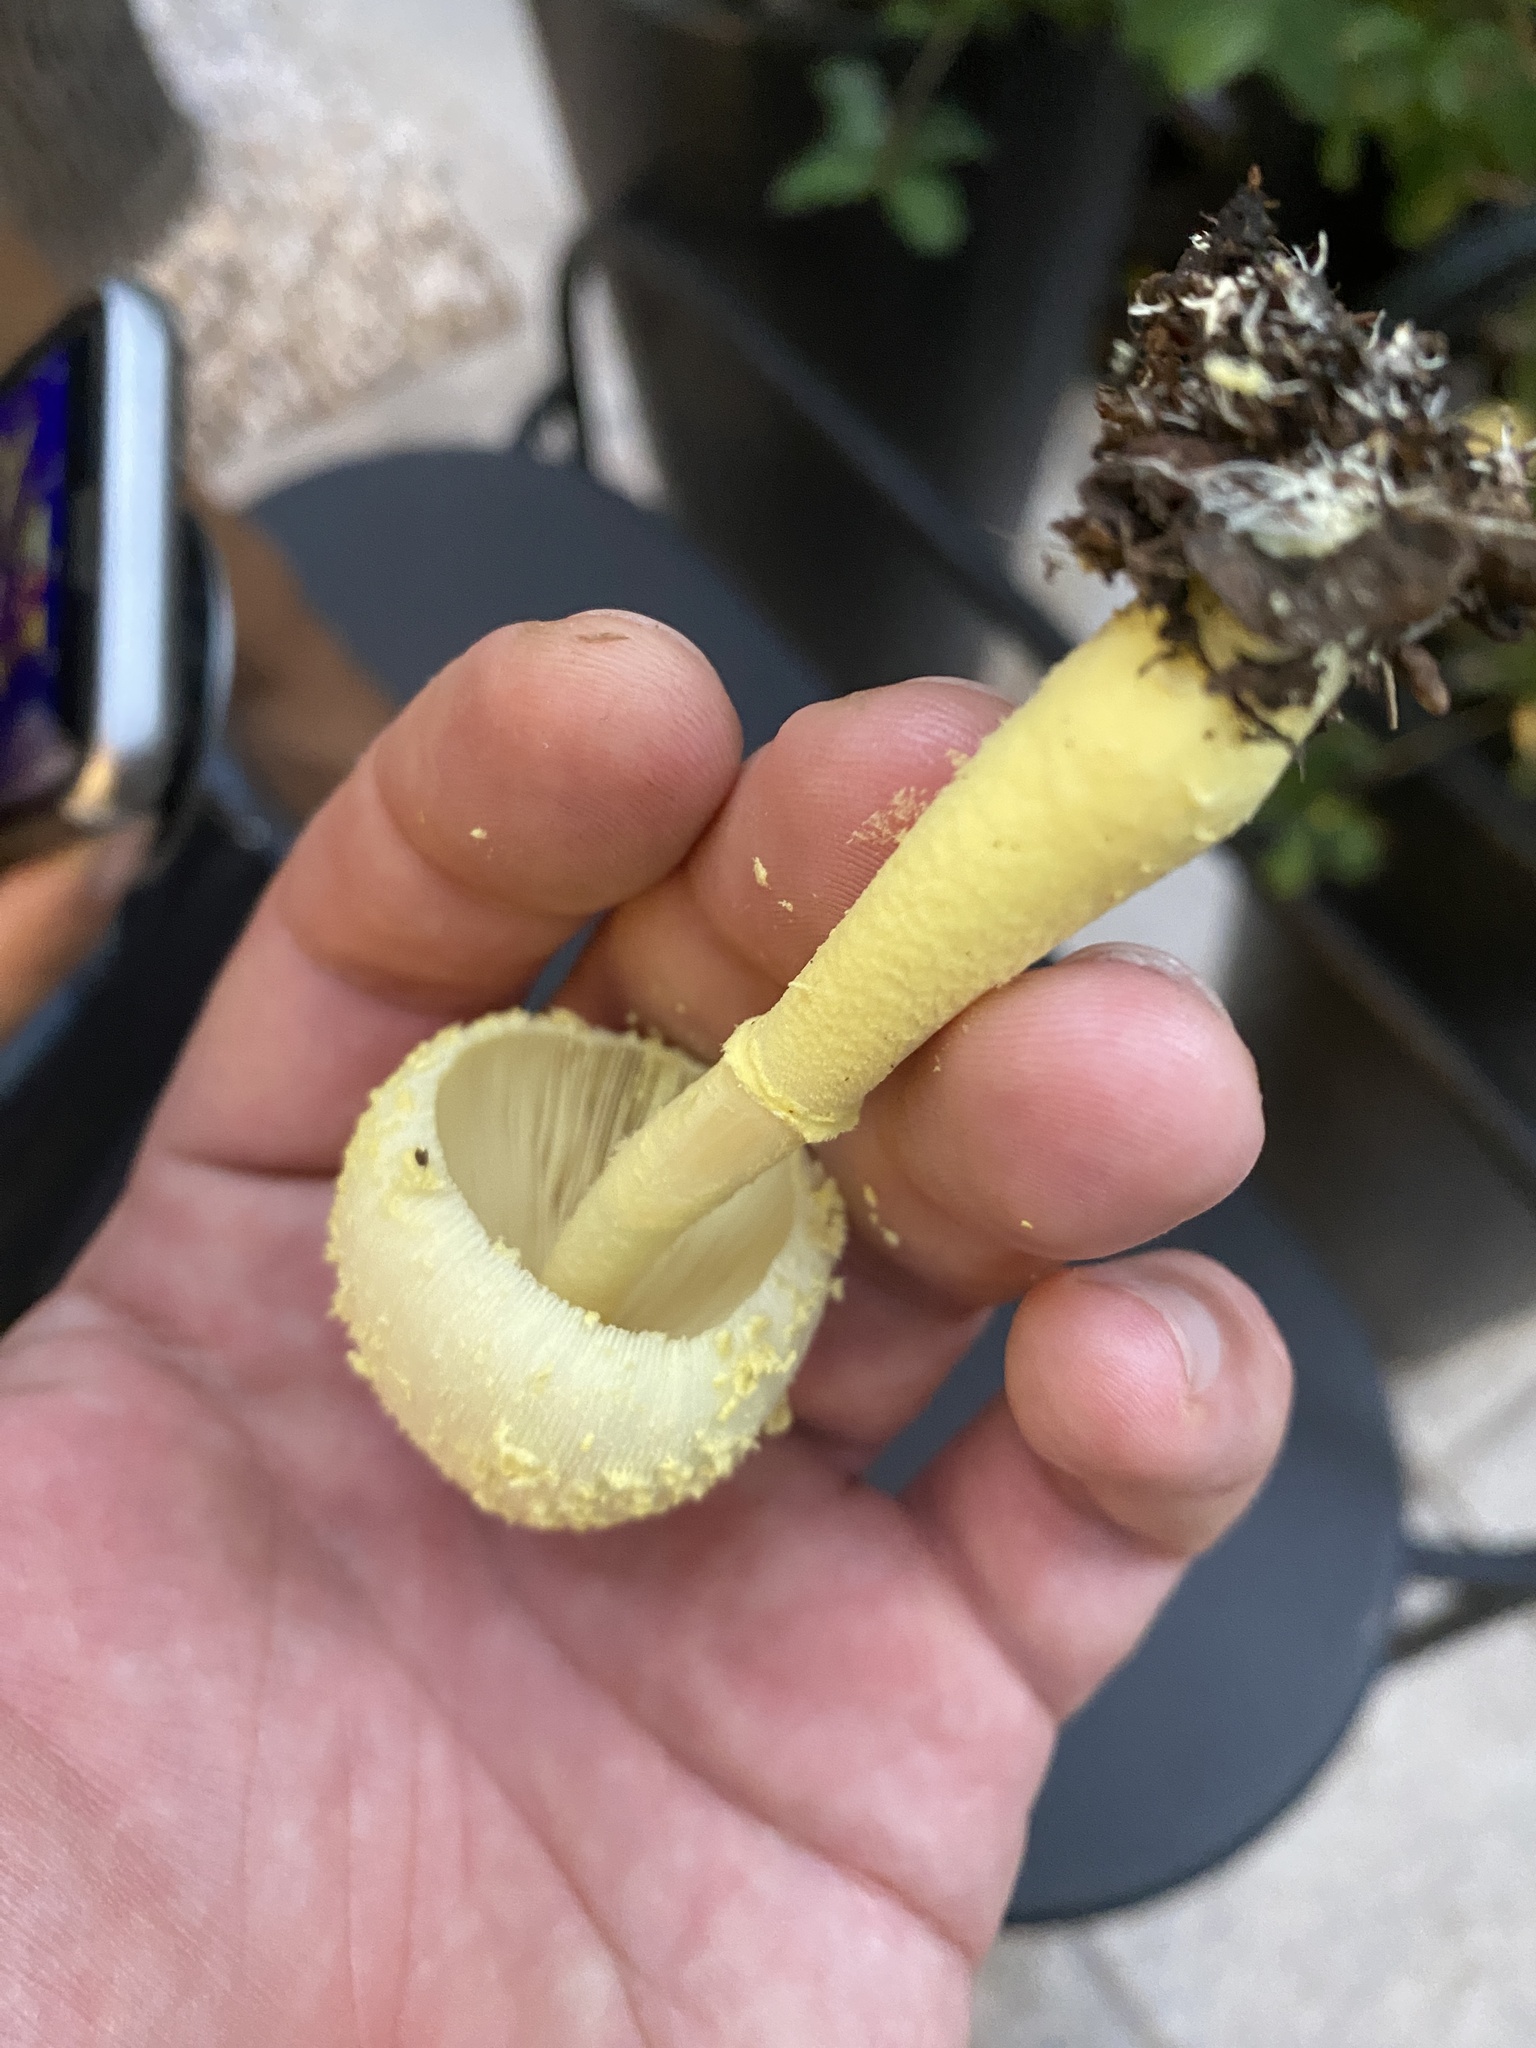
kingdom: Fungi
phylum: Basidiomycota
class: Agaricomycetes
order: Agaricales
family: Agaricaceae
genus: Leucocoprinus
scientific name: Leucocoprinus birnbaumii
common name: Plantpot dapperling
